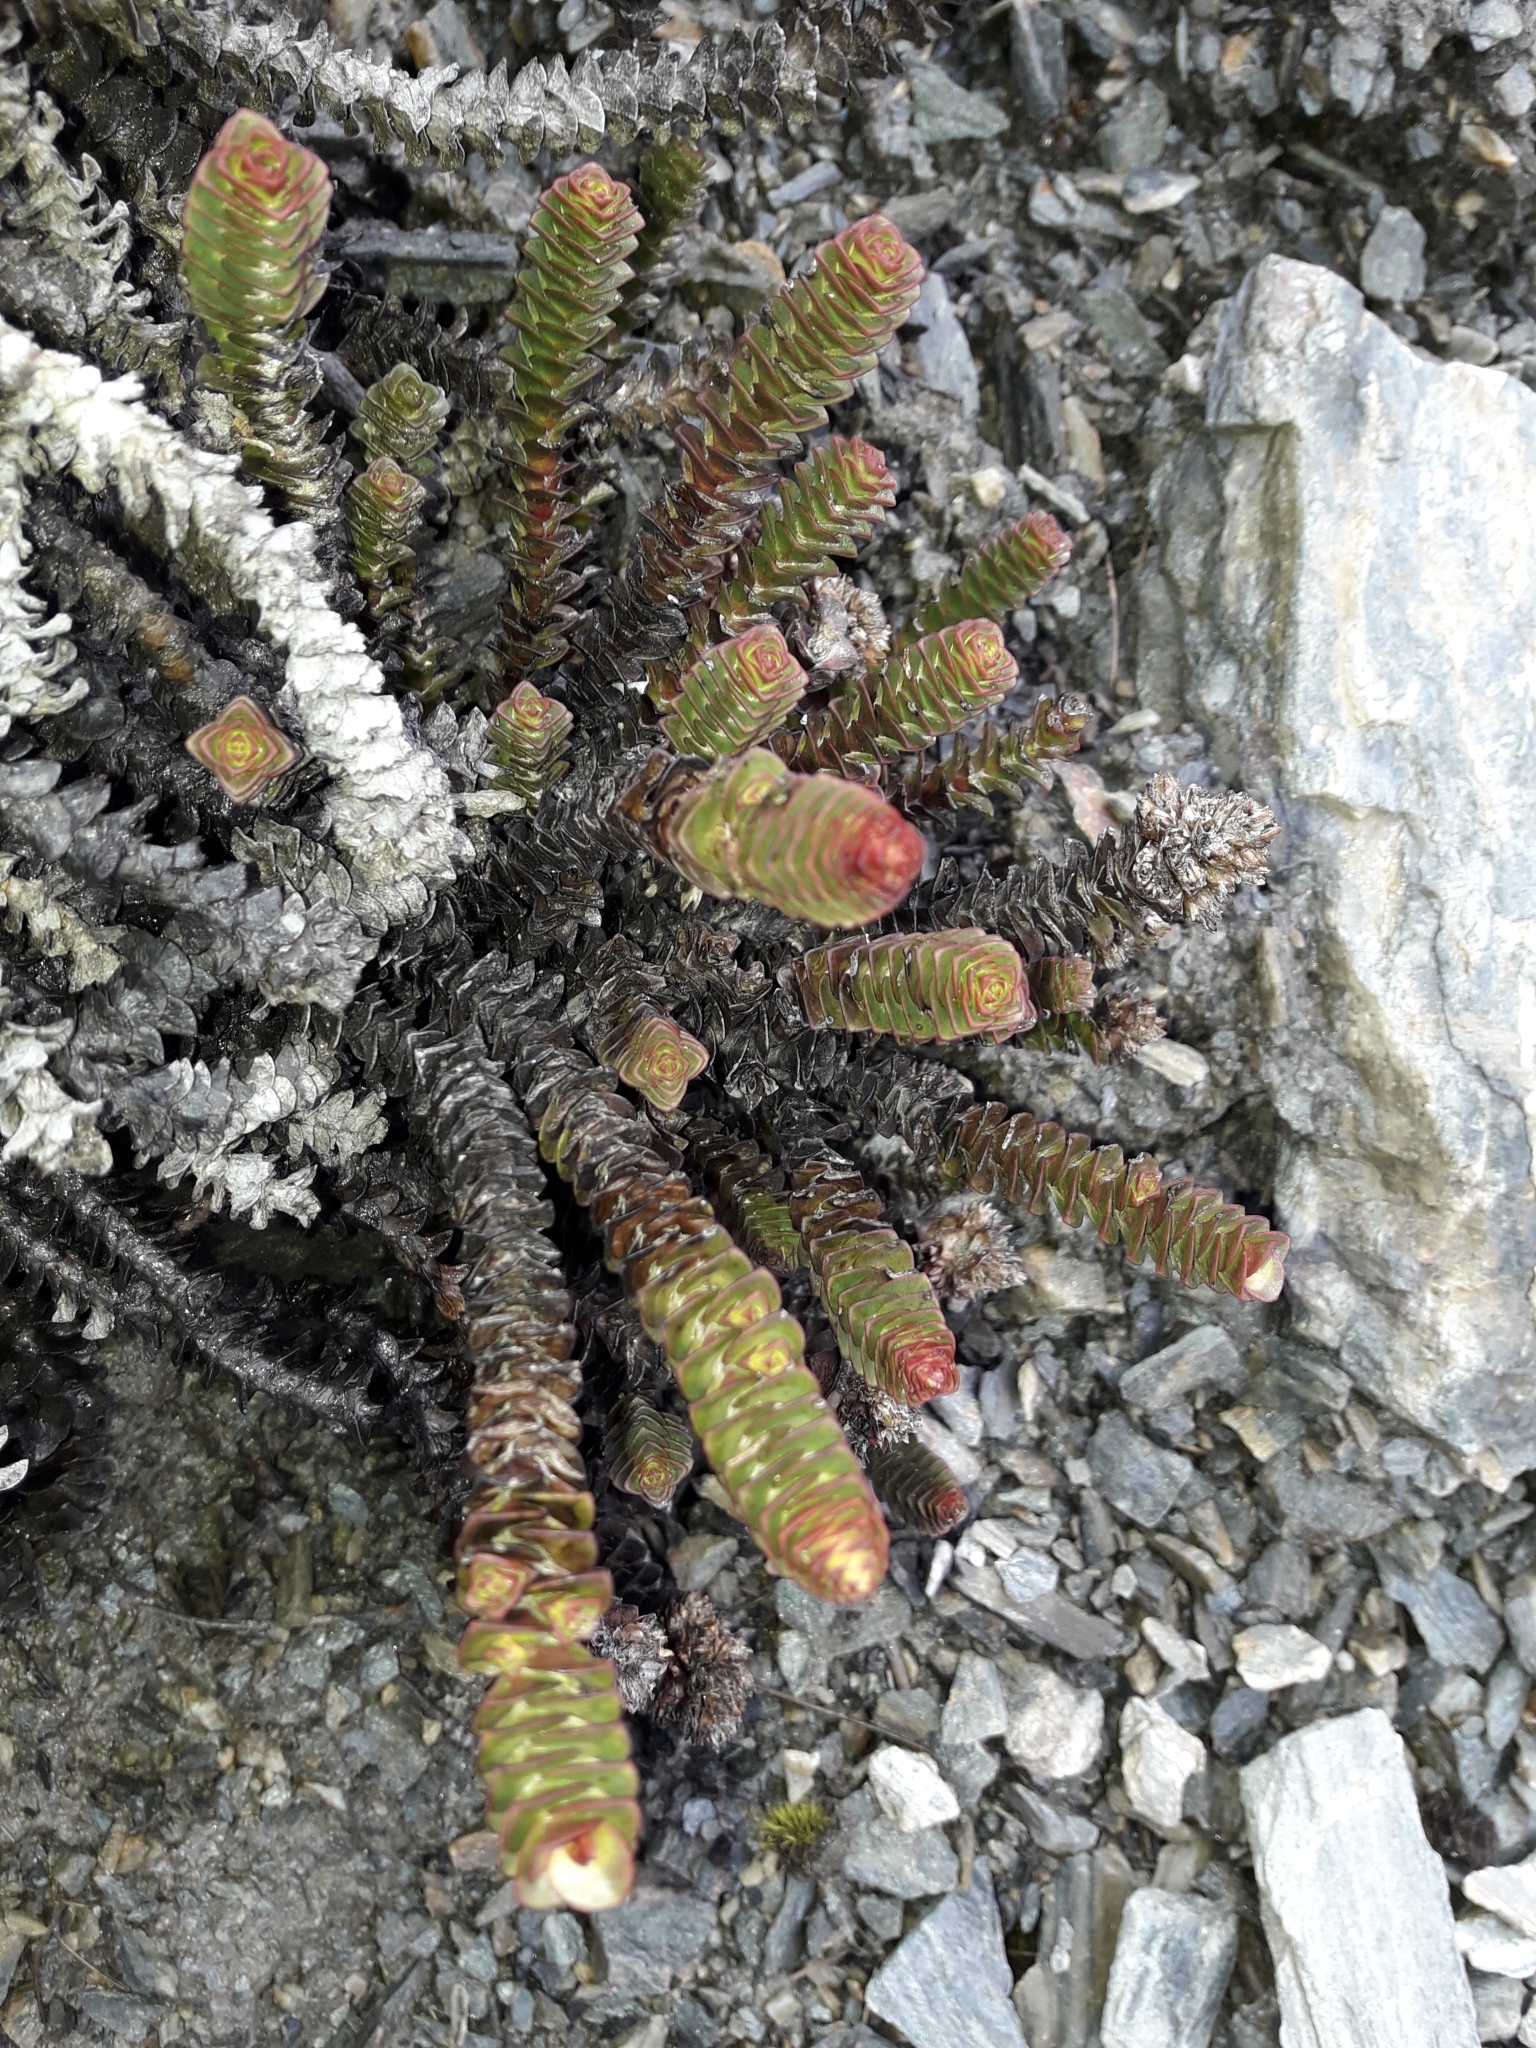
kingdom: Plantae
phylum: Tracheophyta
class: Magnoliopsida
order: Lamiales
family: Plantaginaceae
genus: Veronica
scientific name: Veronica epacridea
